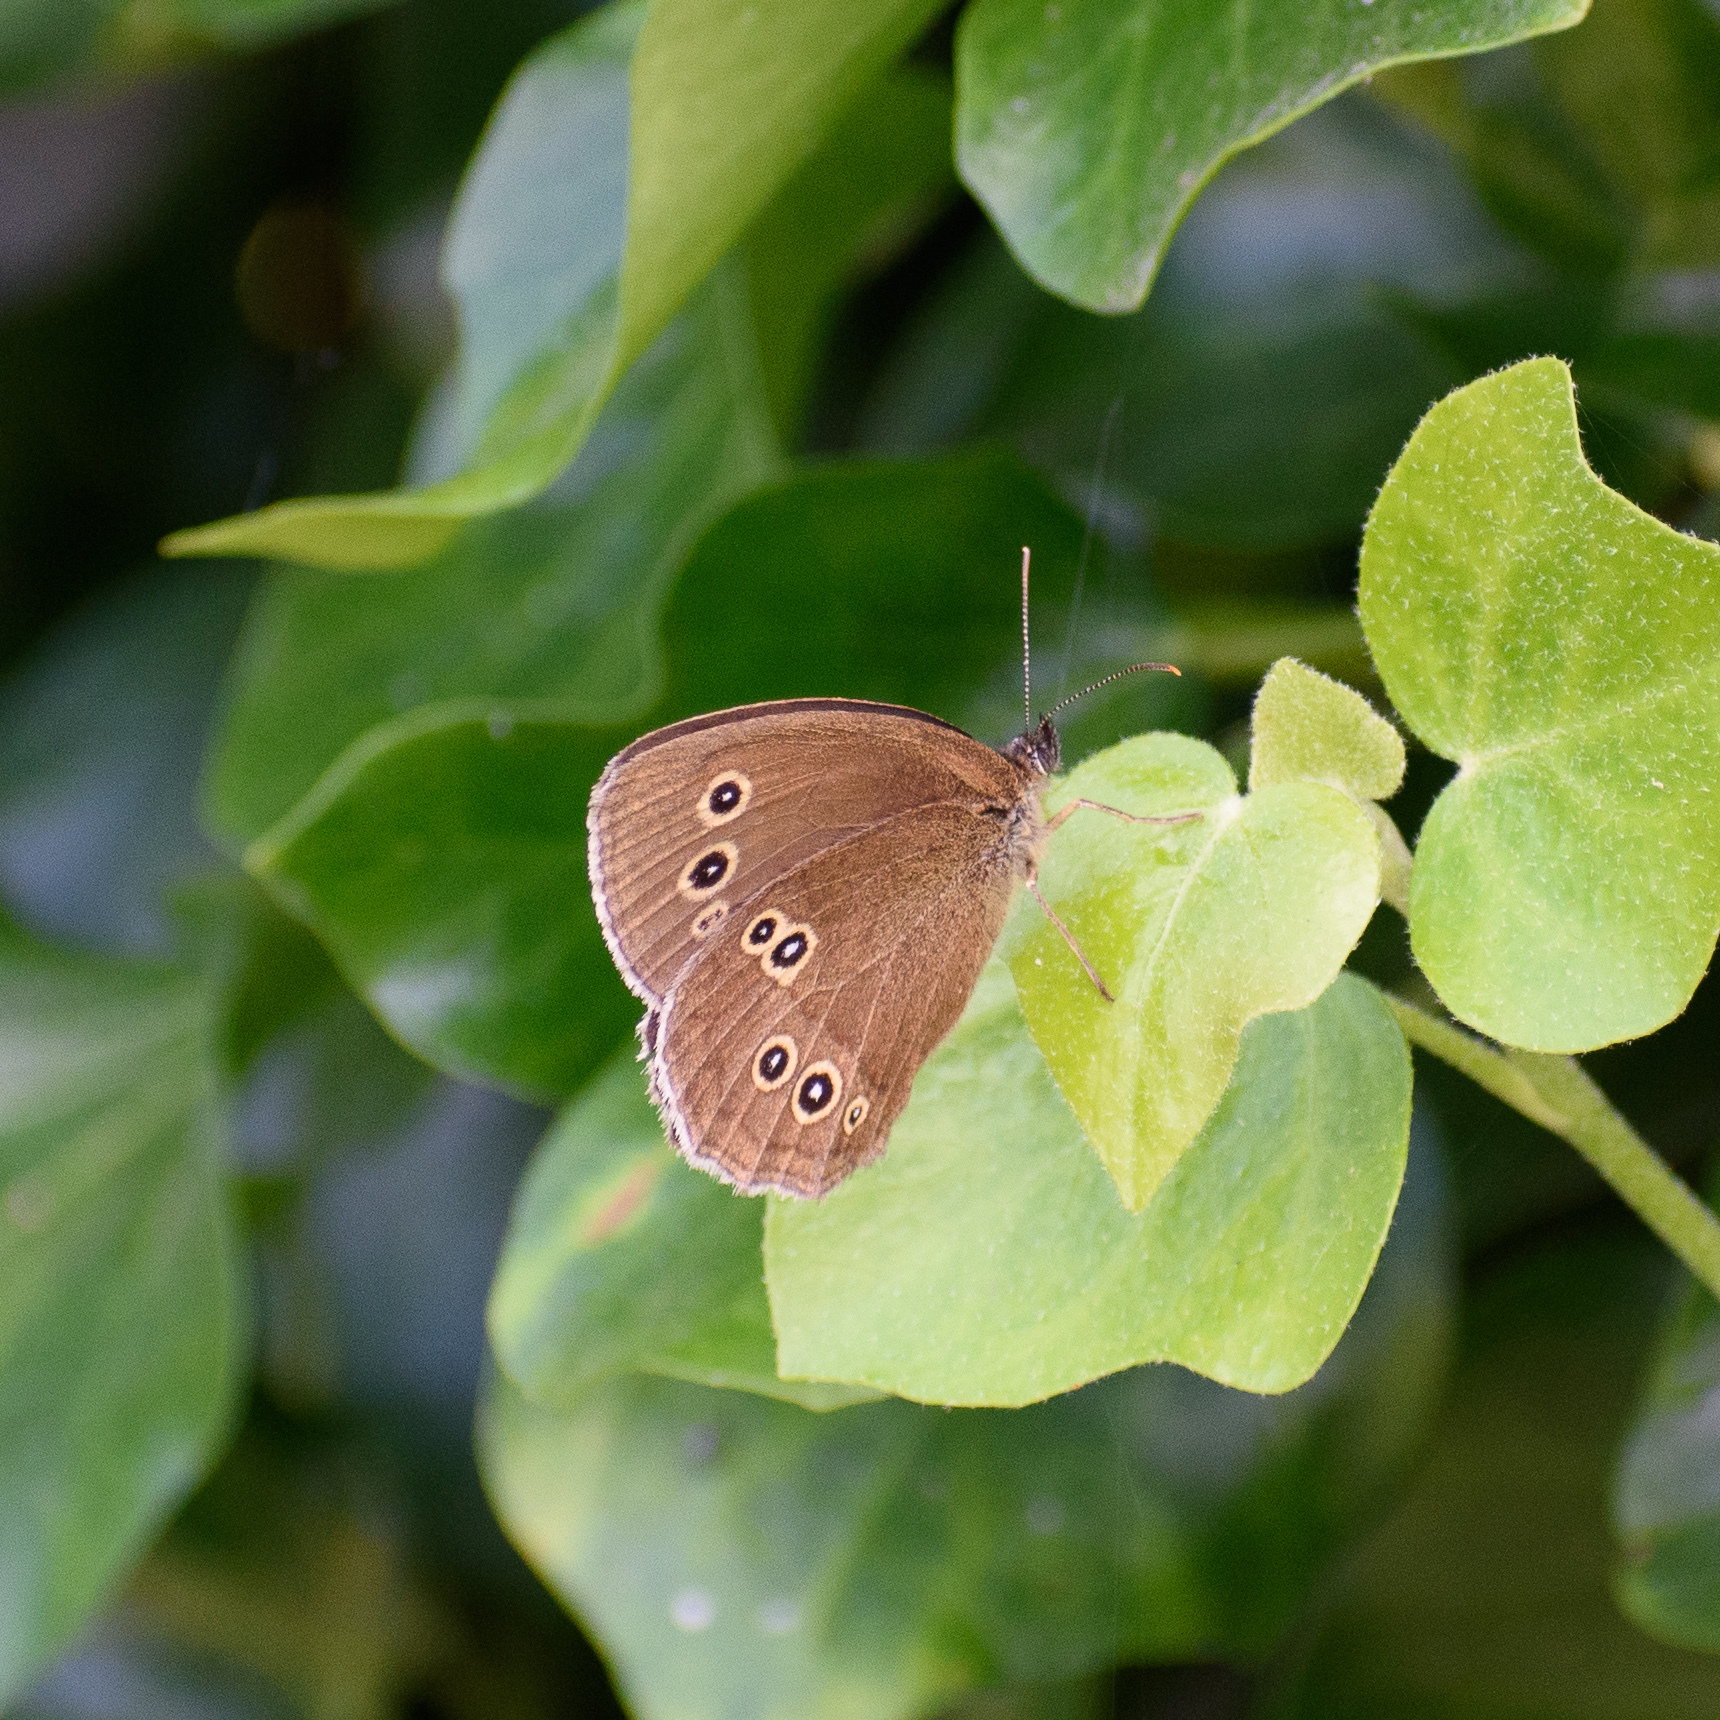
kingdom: Animalia
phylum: Arthropoda
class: Insecta
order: Lepidoptera
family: Nymphalidae
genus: Aphantopus
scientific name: Aphantopus hyperantus
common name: Ringlet
